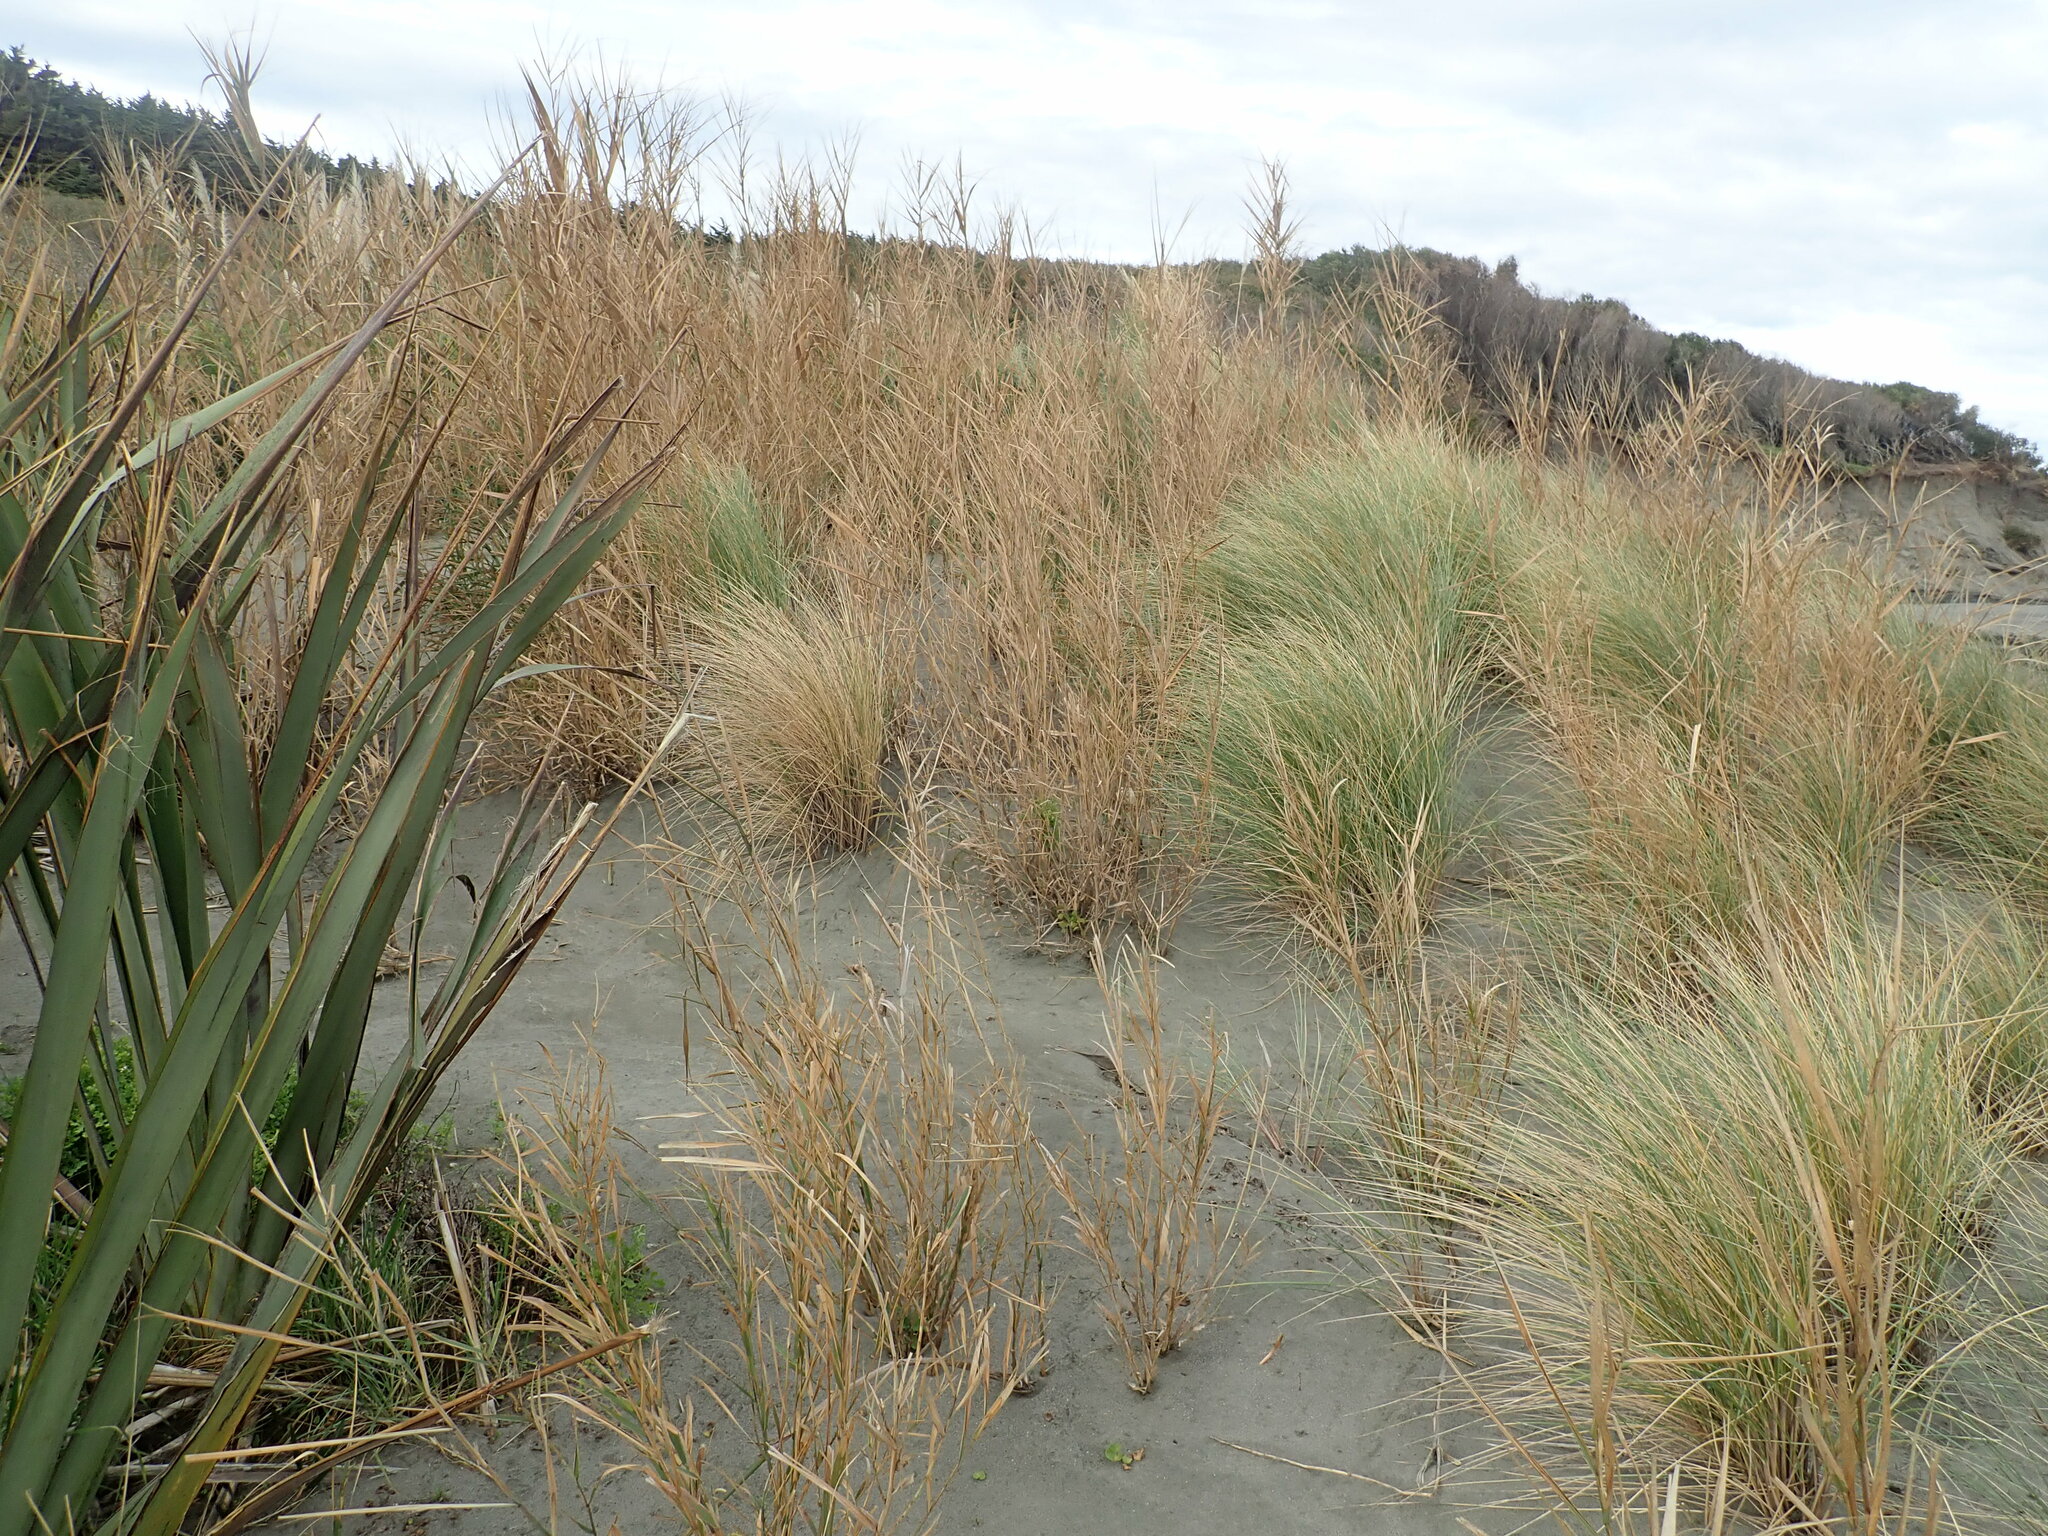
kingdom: Plantae
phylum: Tracheophyta
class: Liliopsida
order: Poales
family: Poaceae
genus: Phragmites
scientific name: Phragmites karka
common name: Tropical reed
